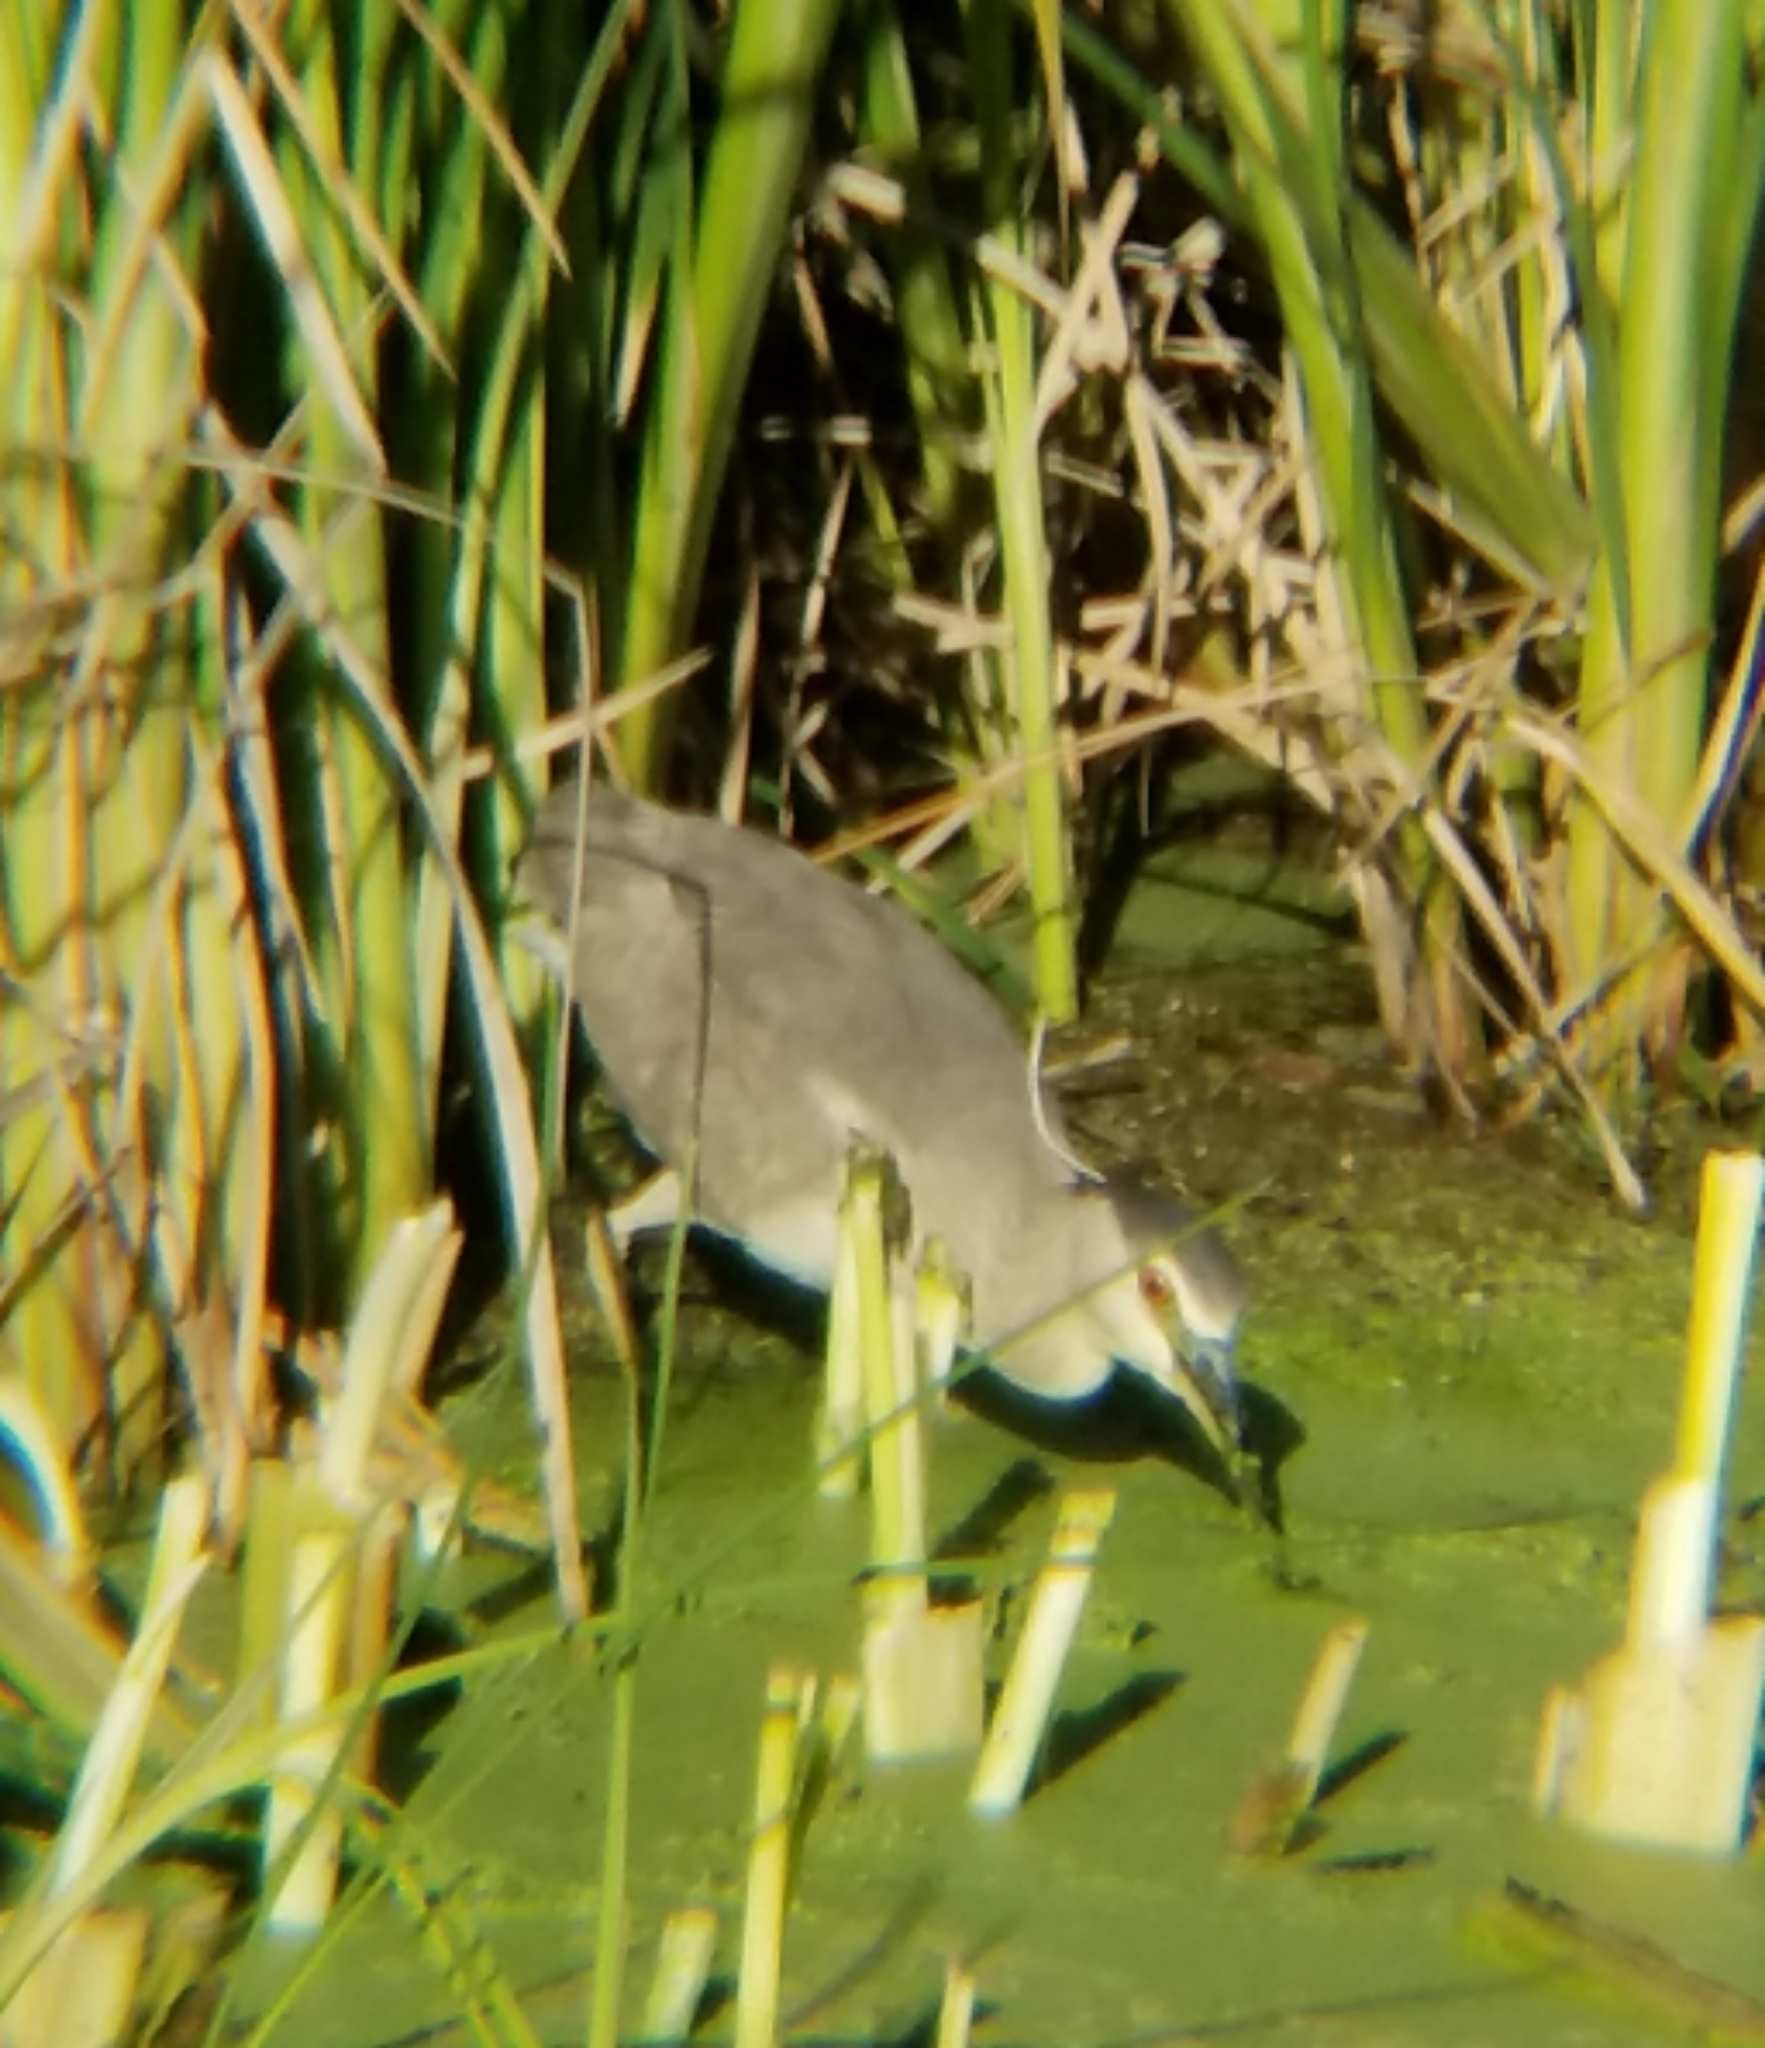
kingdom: Animalia
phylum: Chordata
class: Aves
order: Pelecaniformes
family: Ardeidae
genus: Nycticorax
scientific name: Nycticorax nycticorax
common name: Black-crowned night heron
